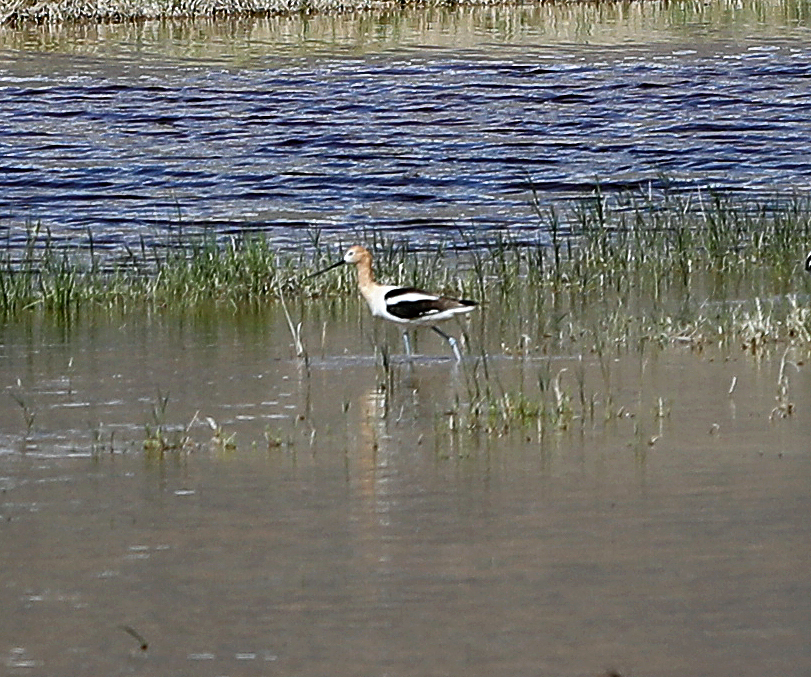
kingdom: Animalia
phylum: Chordata
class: Aves
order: Charadriiformes
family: Recurvirostridae
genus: Recurvirostra
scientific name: Recurvirostra americana
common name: American avocet
